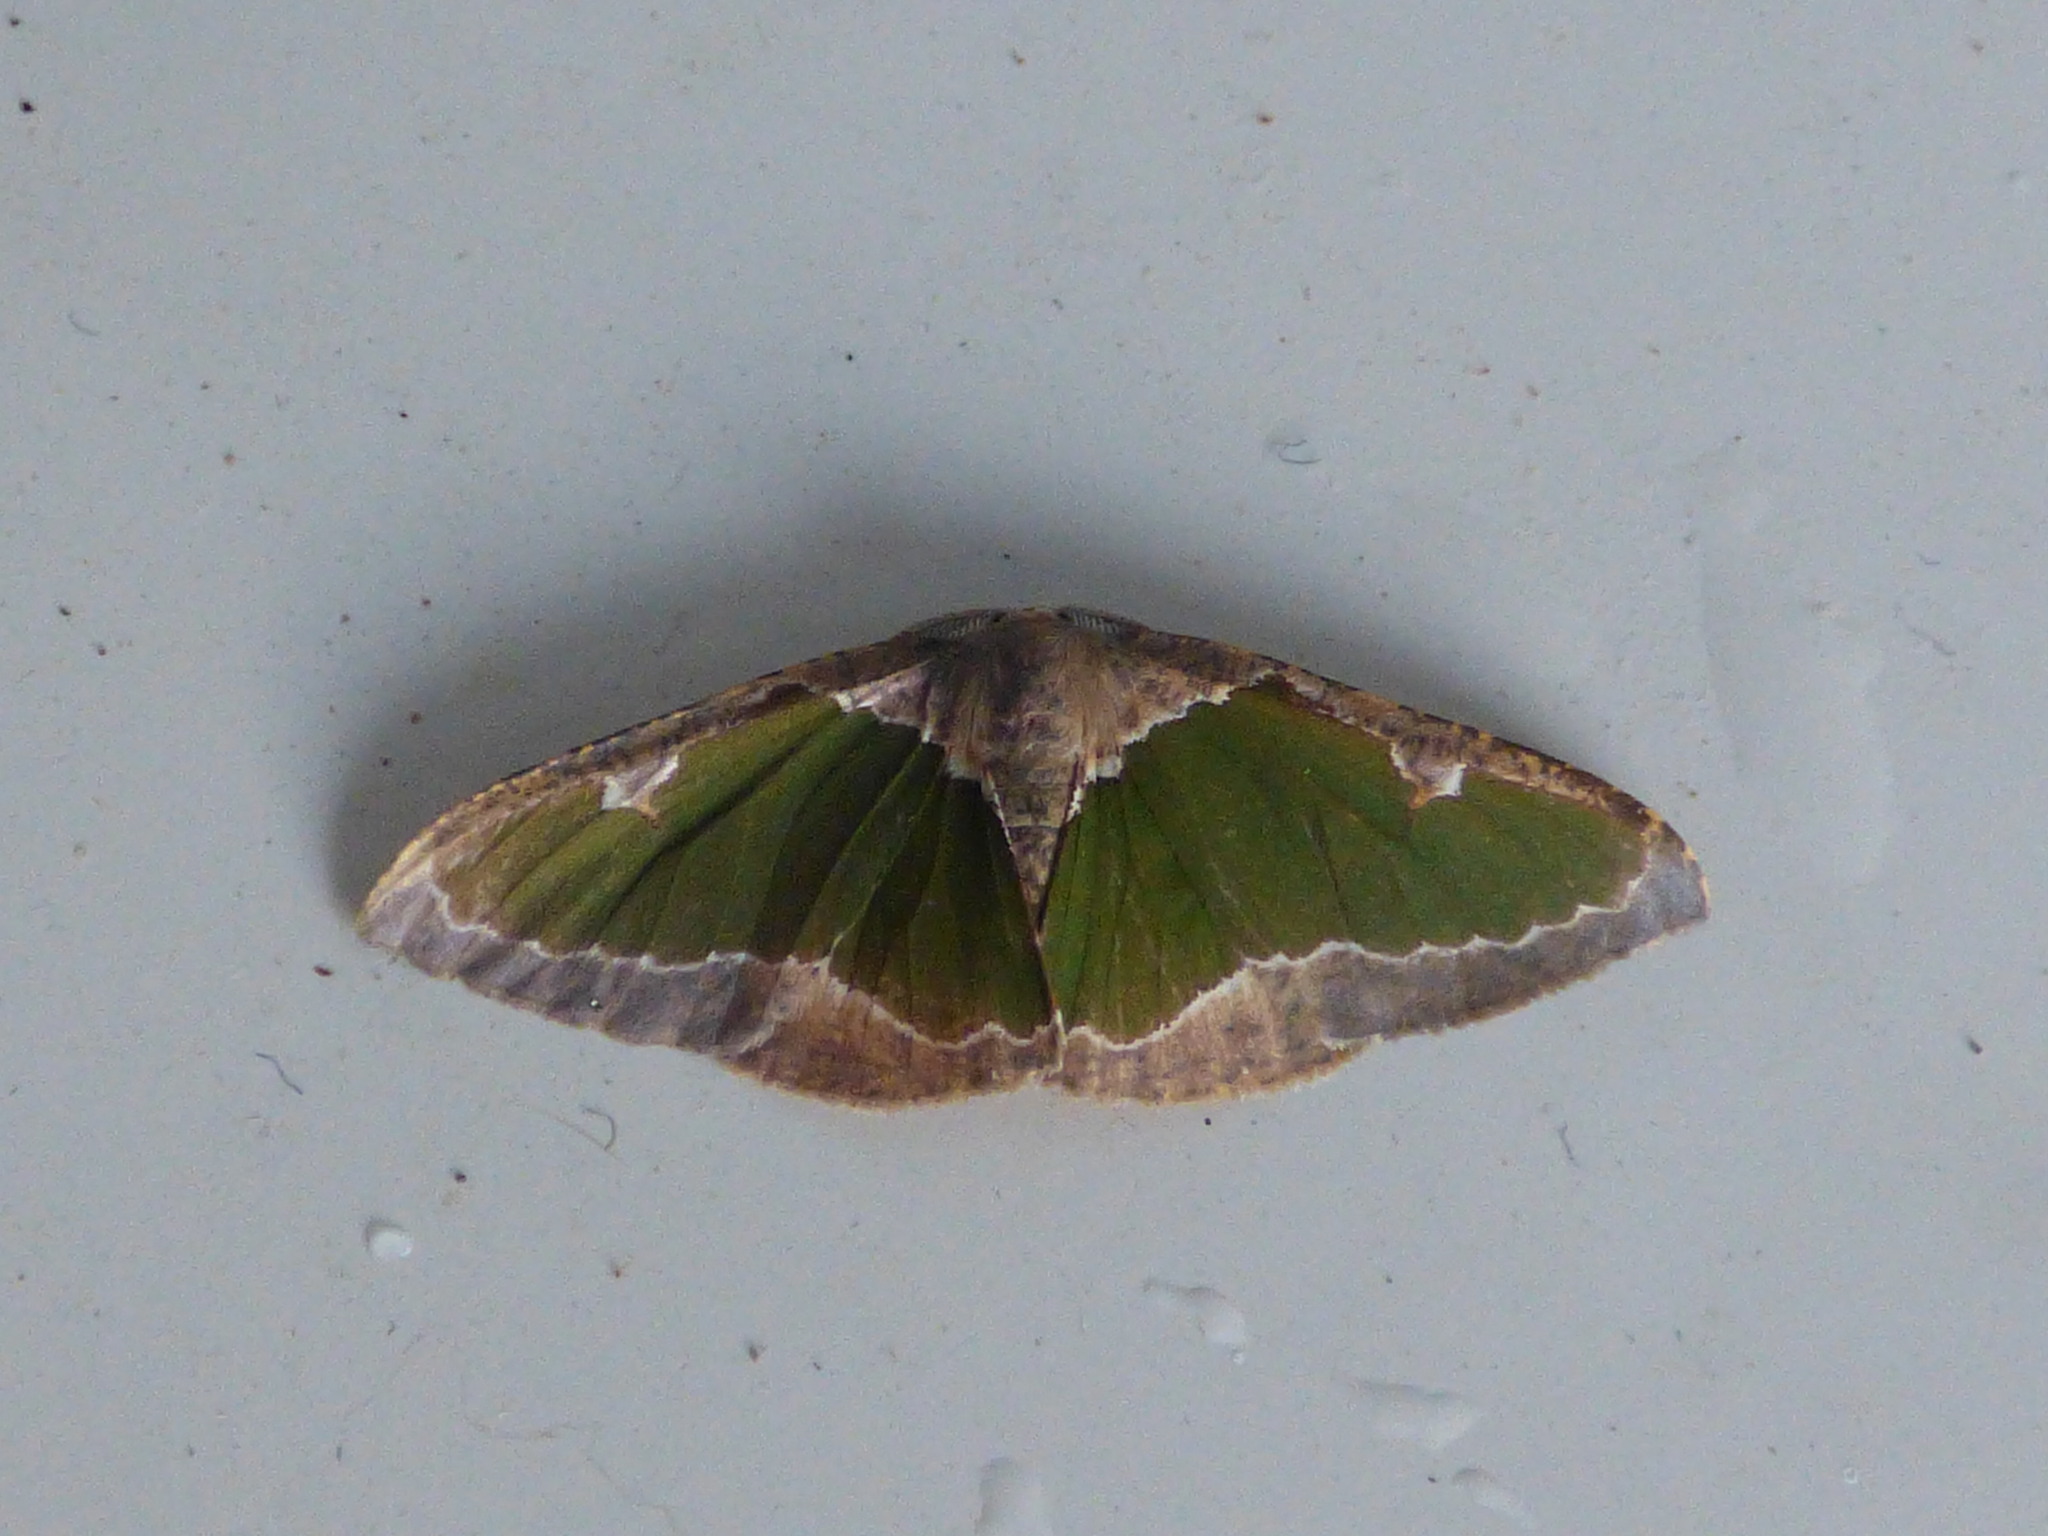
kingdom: Animalia
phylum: Arthropoda
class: Insecta
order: Lepidoptera
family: Geometridae
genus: Celenna
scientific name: Celenna festivaria
